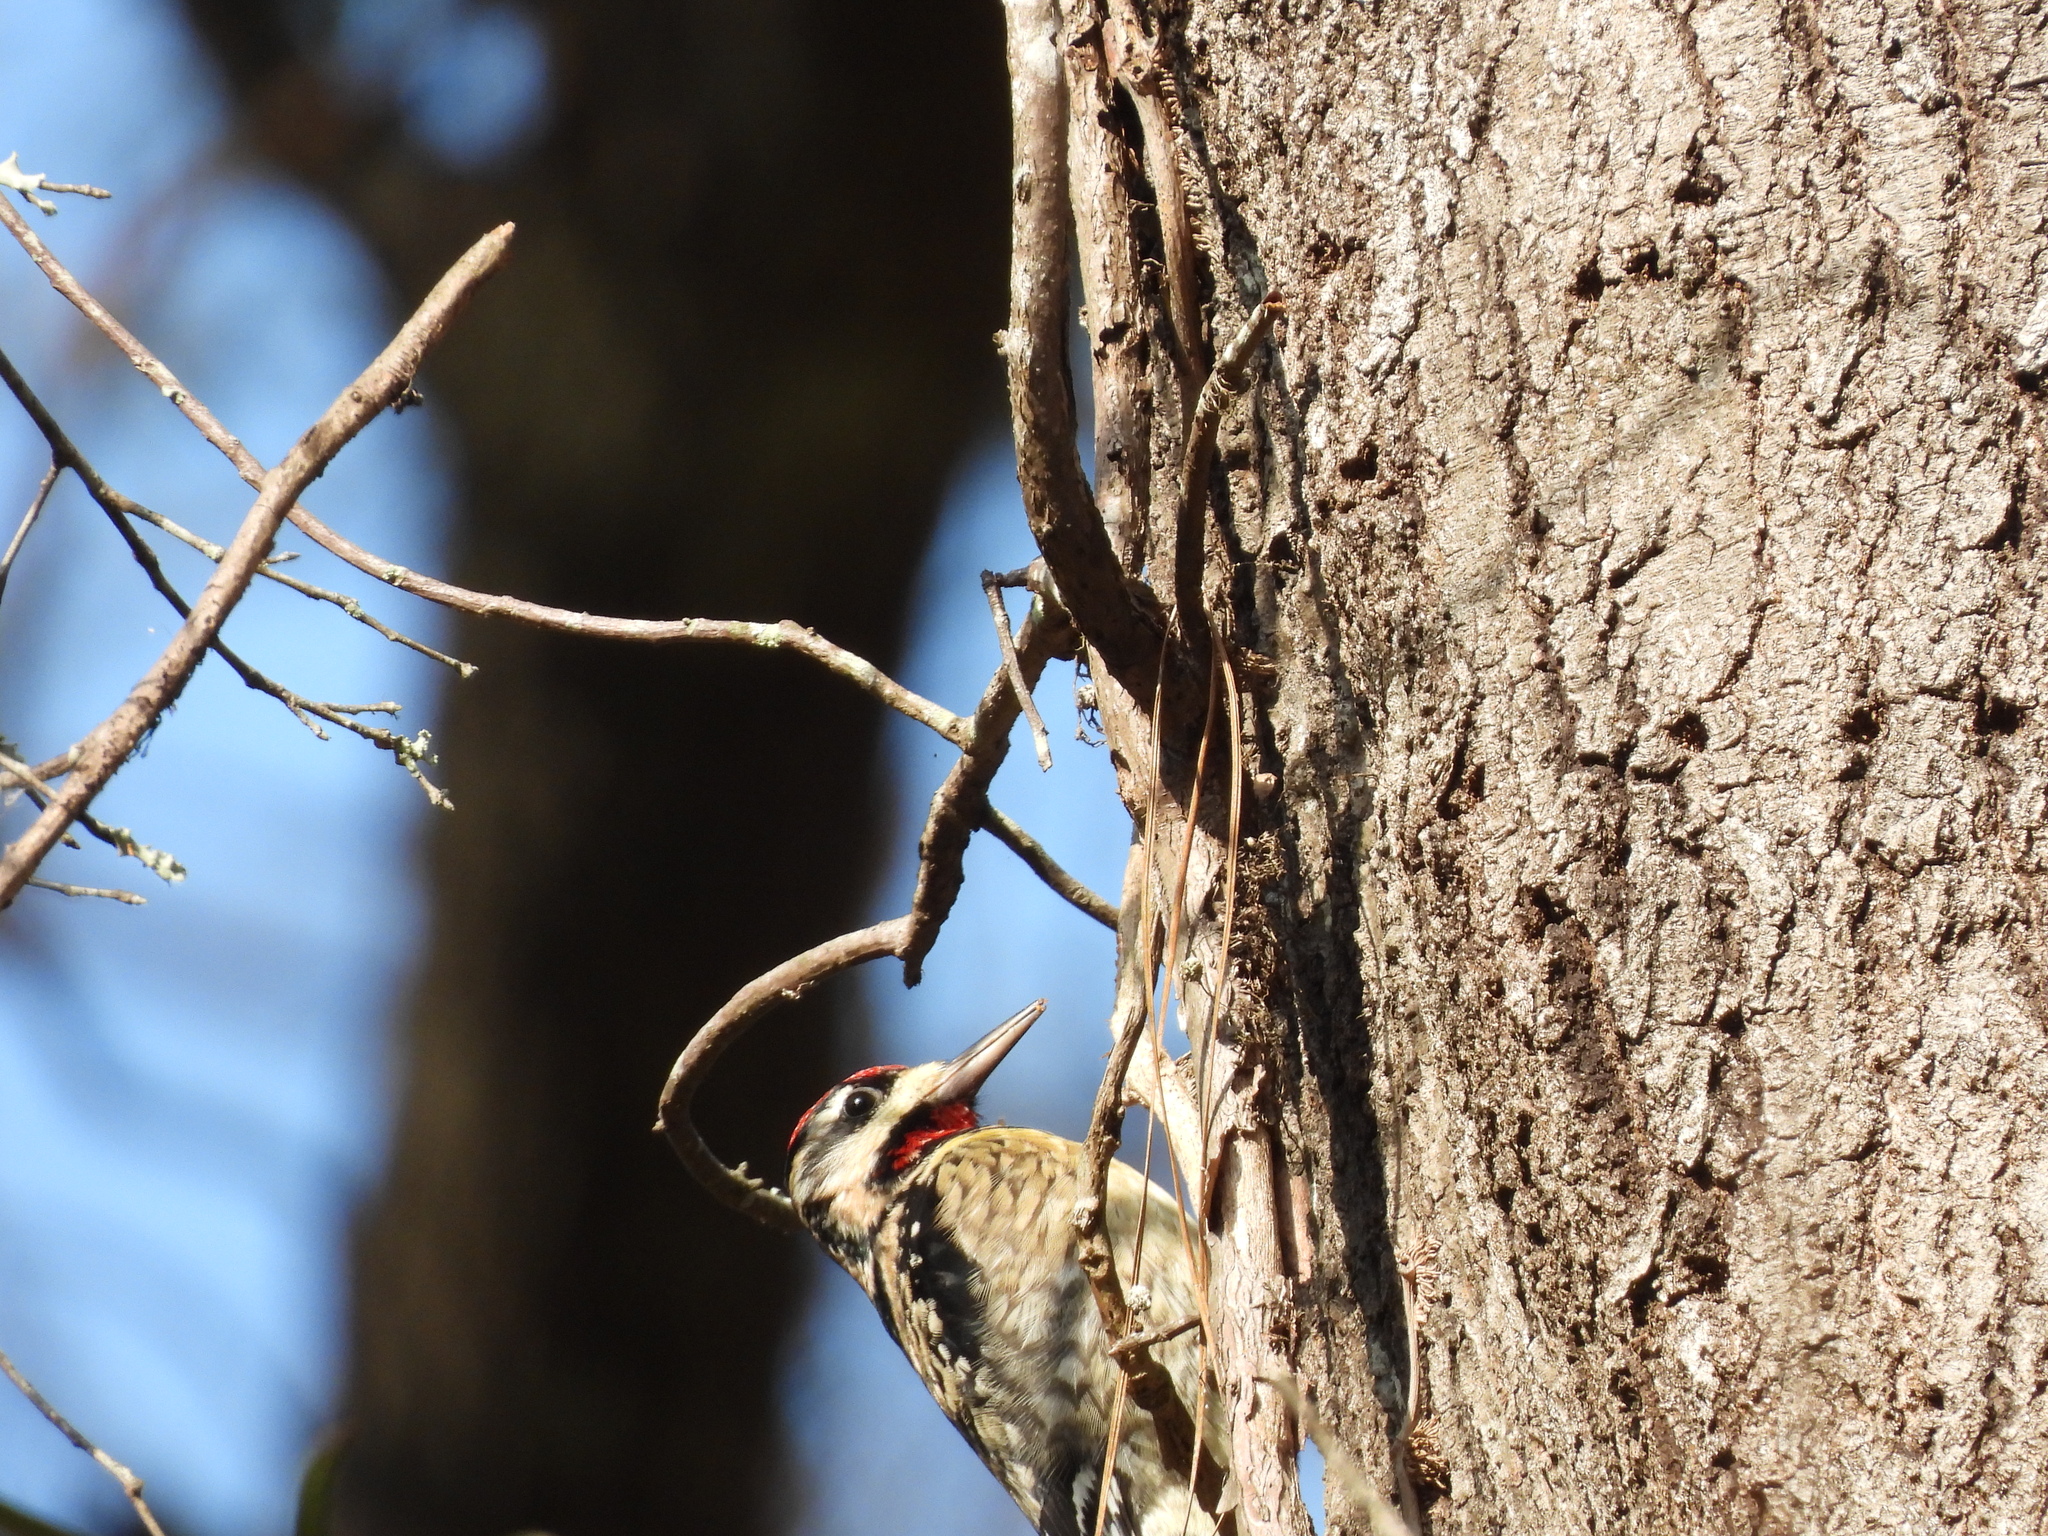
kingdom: Animalia
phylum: Chordata
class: Aves
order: Piciformes
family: Picidae
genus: Sphyrapicus
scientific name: Sphyrapicus varius
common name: Yellow-bellied sapsucker
